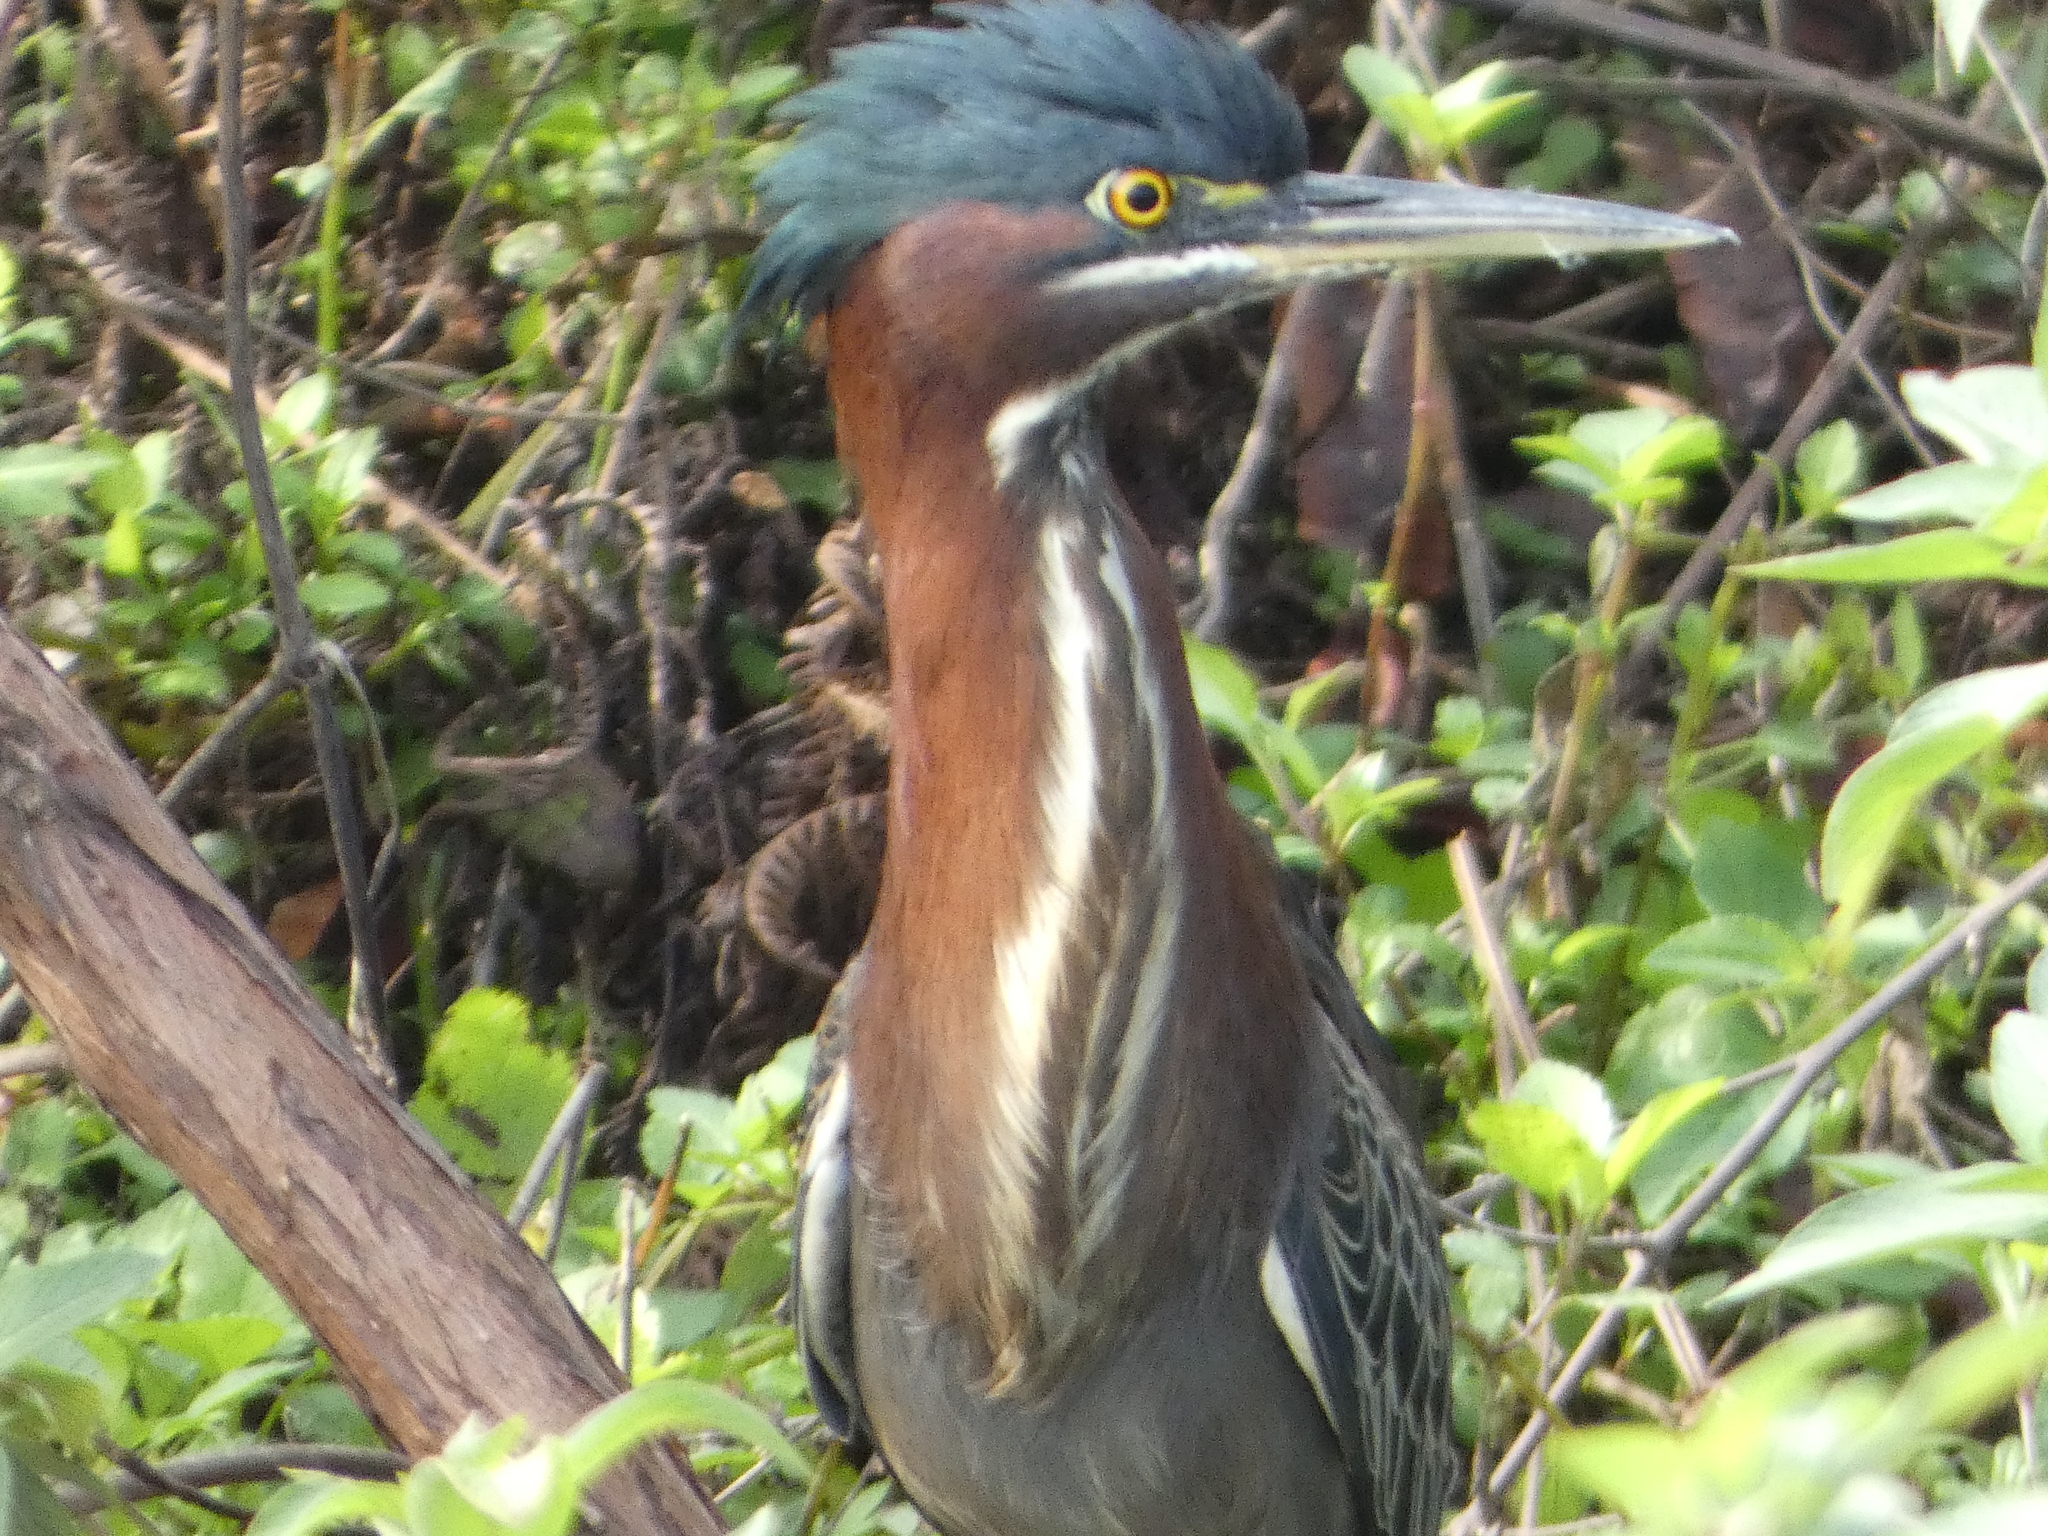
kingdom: Animalia
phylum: Chordata
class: Aves
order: Pelecaniformes
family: Ardeidae
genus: Butorides
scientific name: Butorides virescens
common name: Green heron
